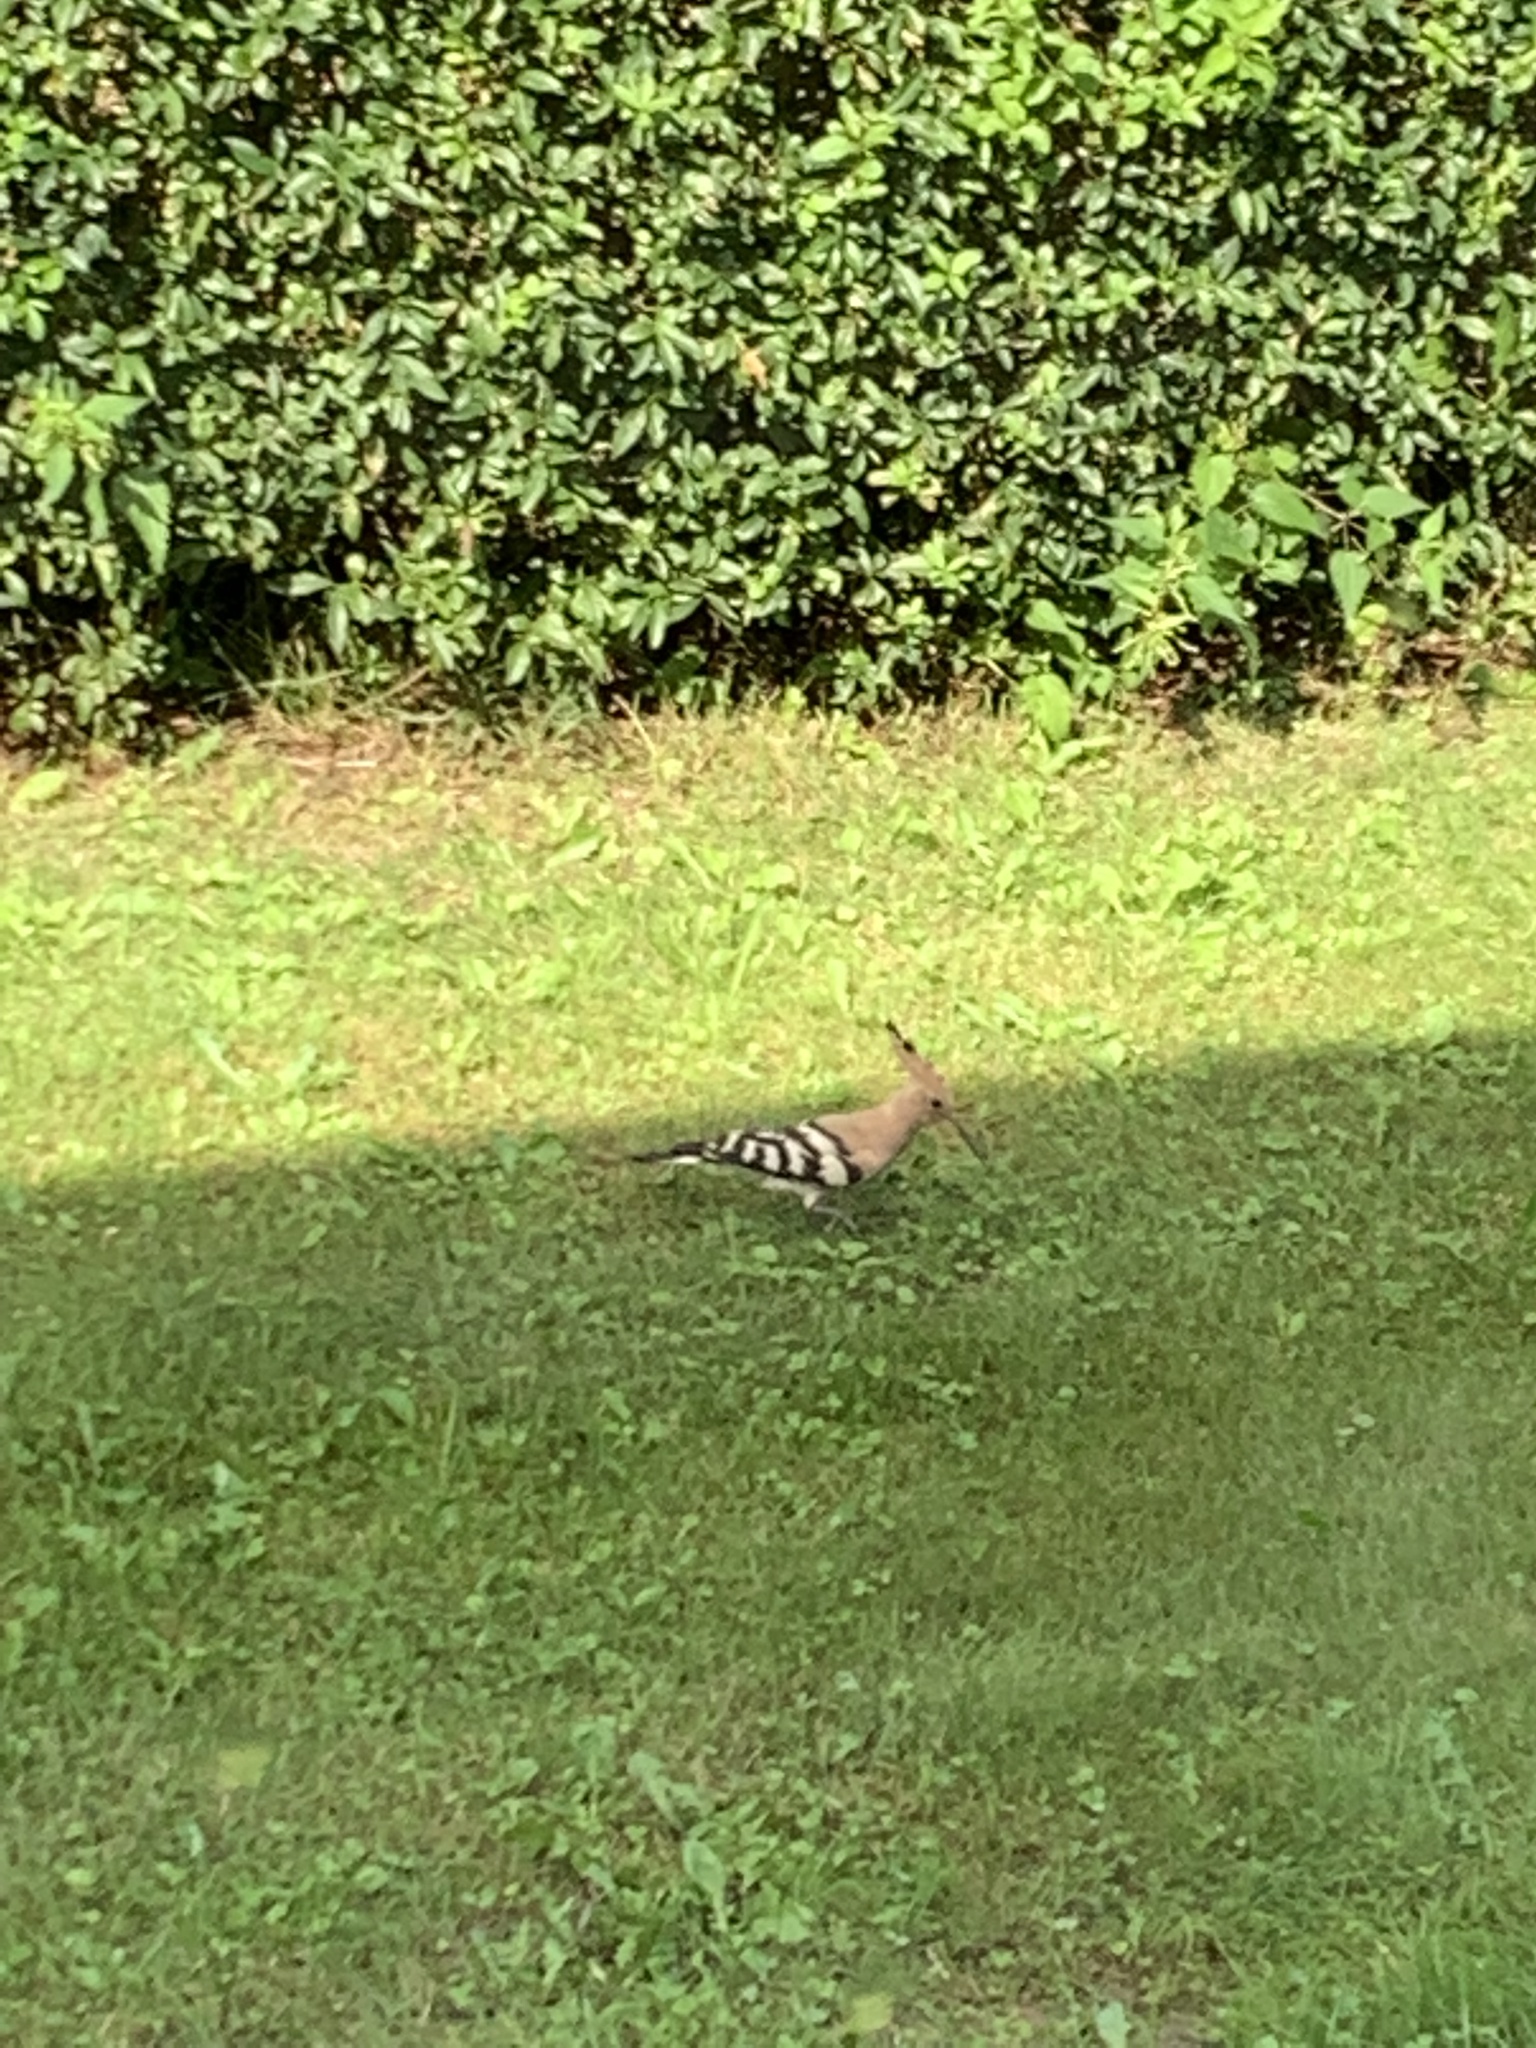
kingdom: Animalia
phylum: Chordata
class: Aves
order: Bucerotiformes
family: Upupidae
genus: Upupa
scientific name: Upupa epops
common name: Eurasian hoopoe
